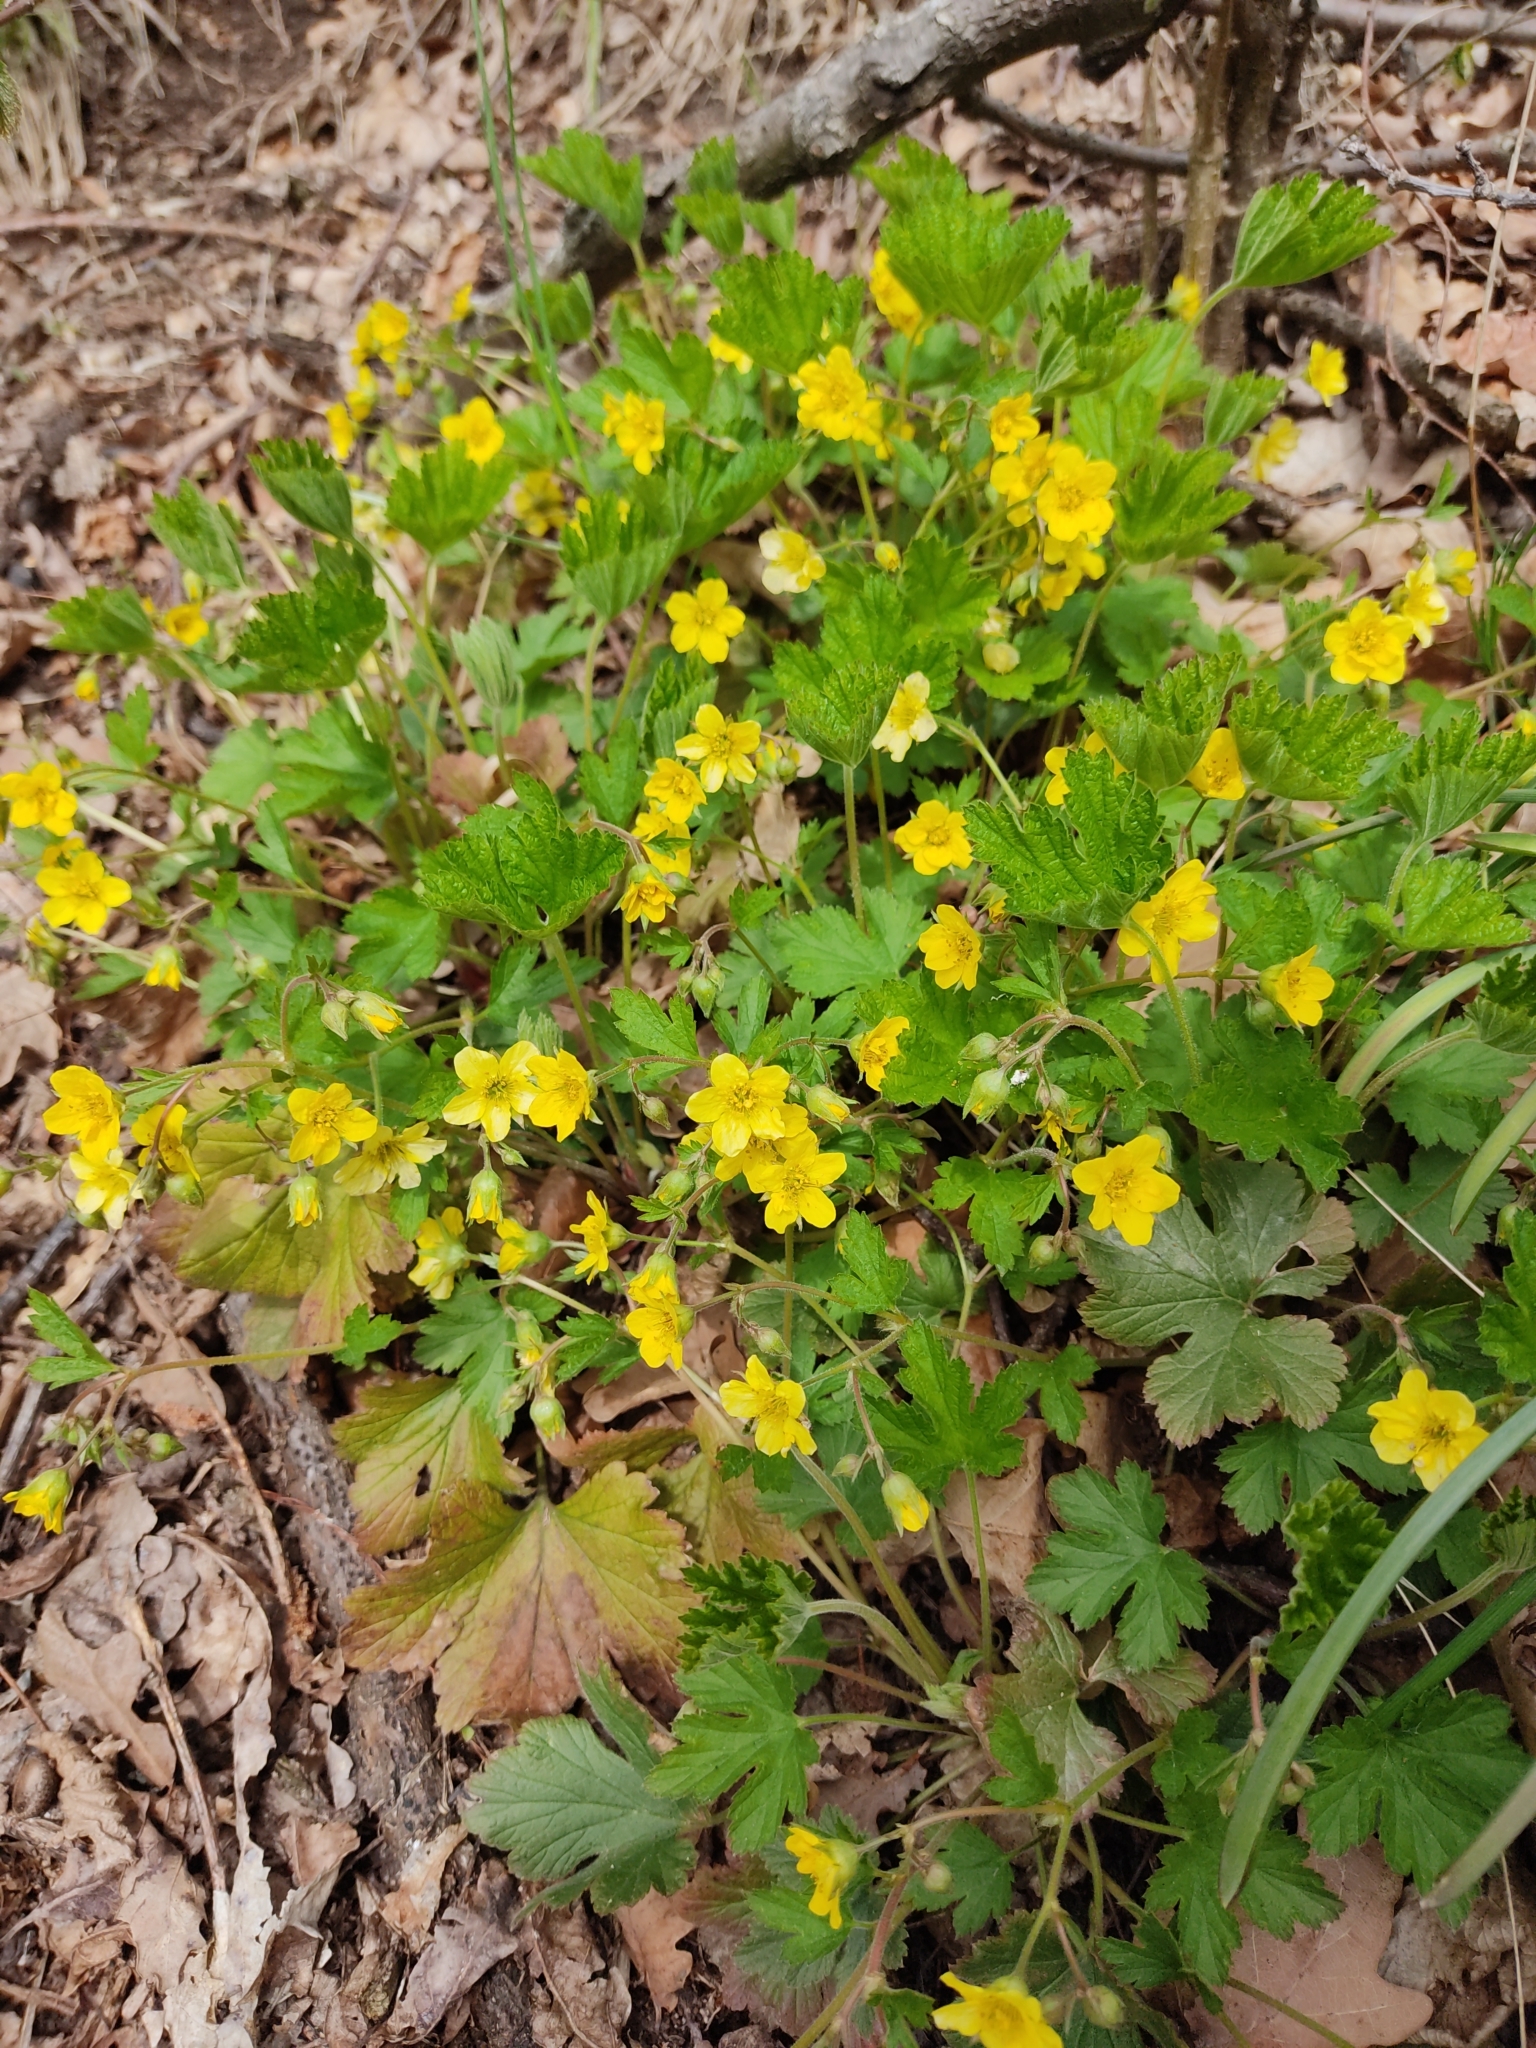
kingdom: Plantae
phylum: Tracheophyta
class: Magnoliopsida
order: Rosales
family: Rosaceae
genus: Geum
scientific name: Geum waldsteinia
